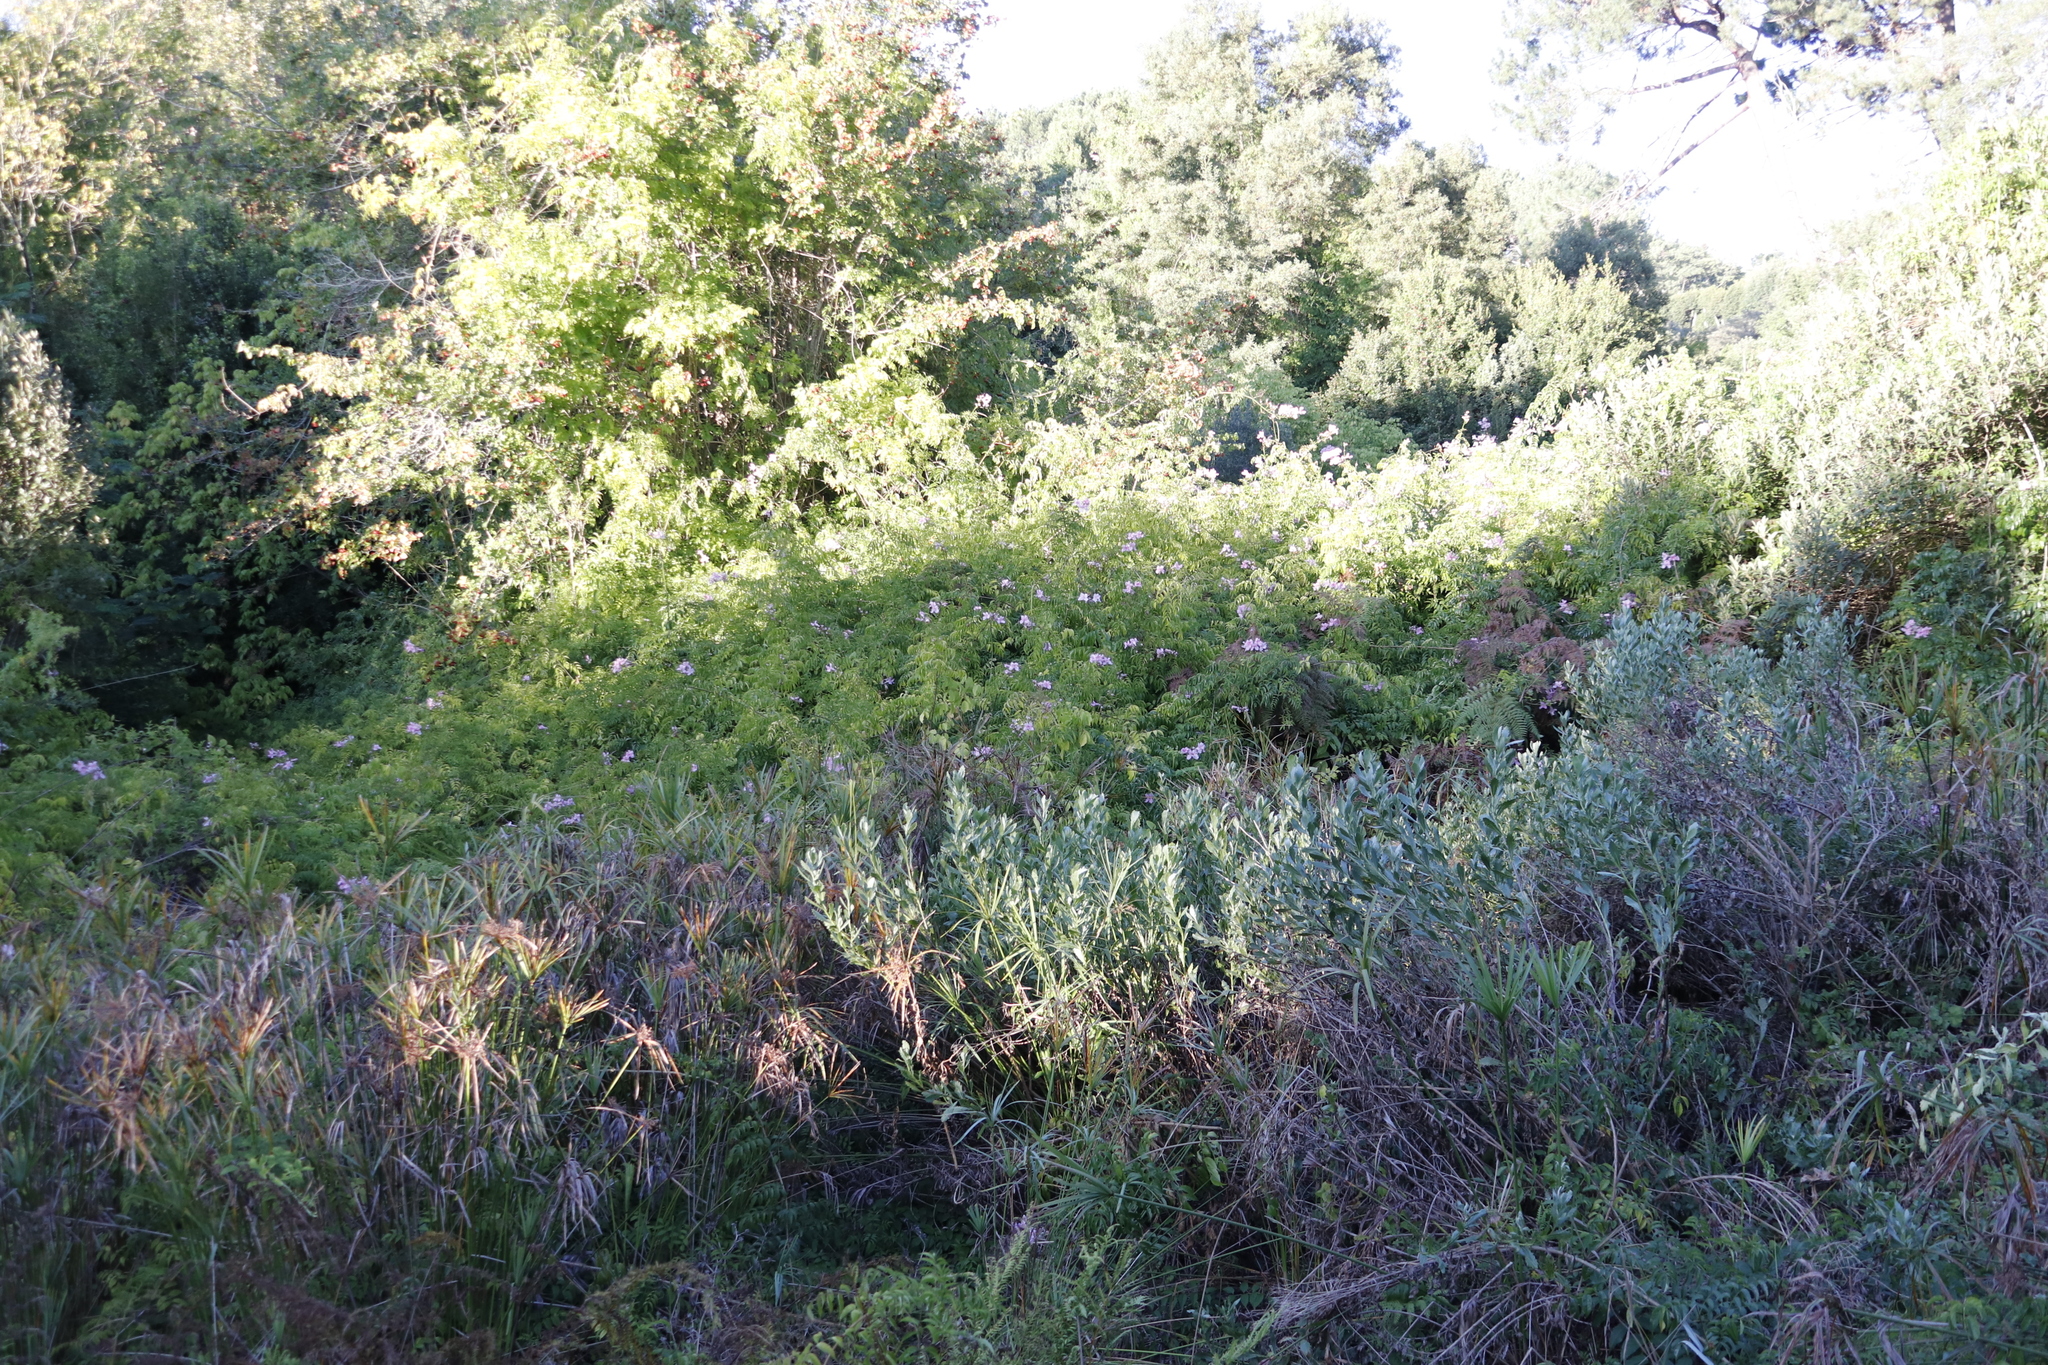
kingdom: Plantae
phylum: Tracheophyta
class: Magnoliopsida
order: Lamiales
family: Bignoniaceae
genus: Podranea
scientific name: Podranea ricasoliana
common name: Zimbabwe creeper
